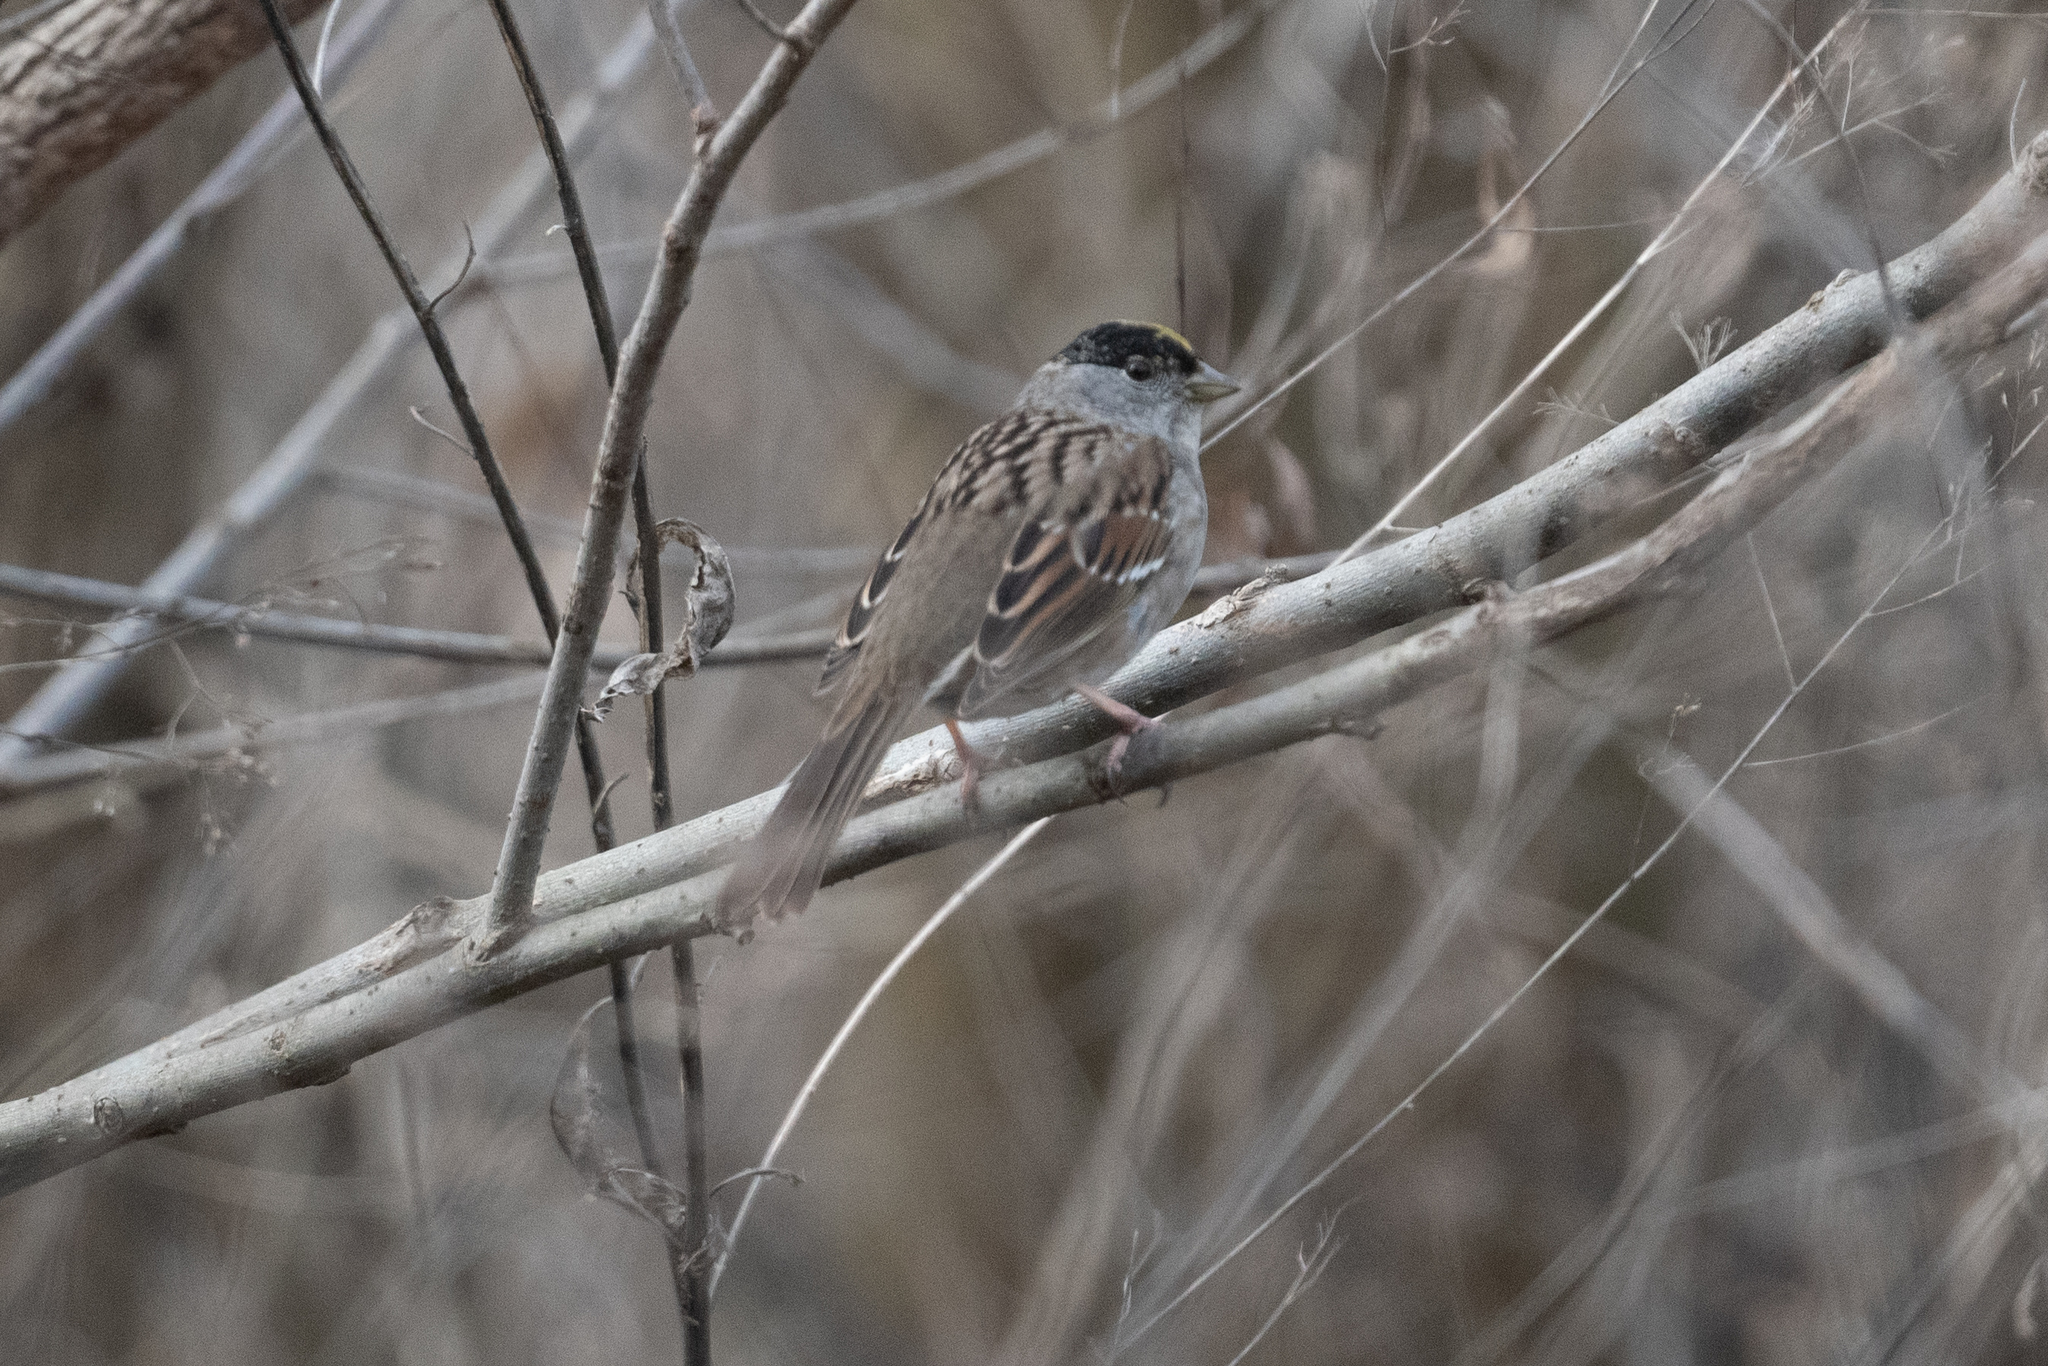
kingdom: Animalia
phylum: Chordata
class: Aves
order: Passeriformes
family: Passerellidae
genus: Zonotrichia
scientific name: Zonotrichia atricapilla
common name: Golden-crowned sparrow
